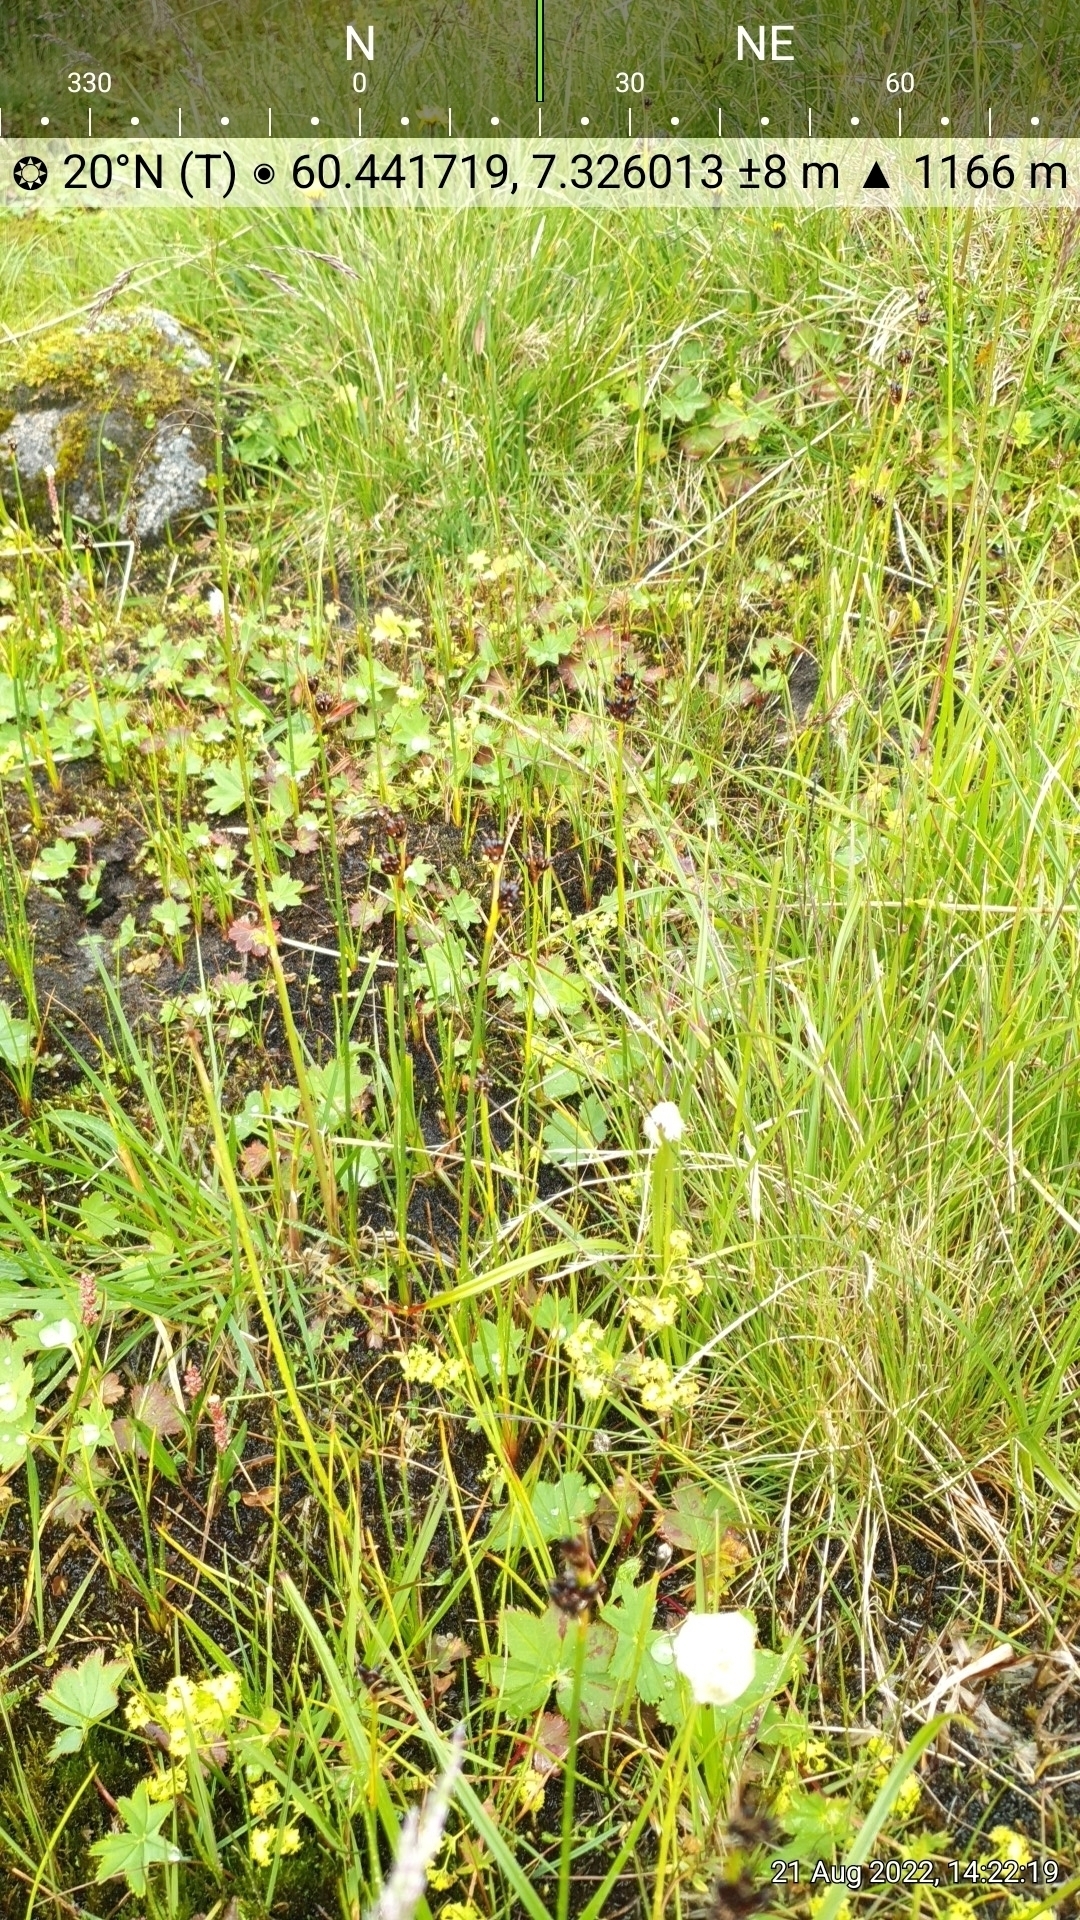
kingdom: Plantae
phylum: Tracheophyta
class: Liliopsida
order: Poales
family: Juncaceae
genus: Juncus
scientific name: Juncus castaneus
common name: Chestnut rush
